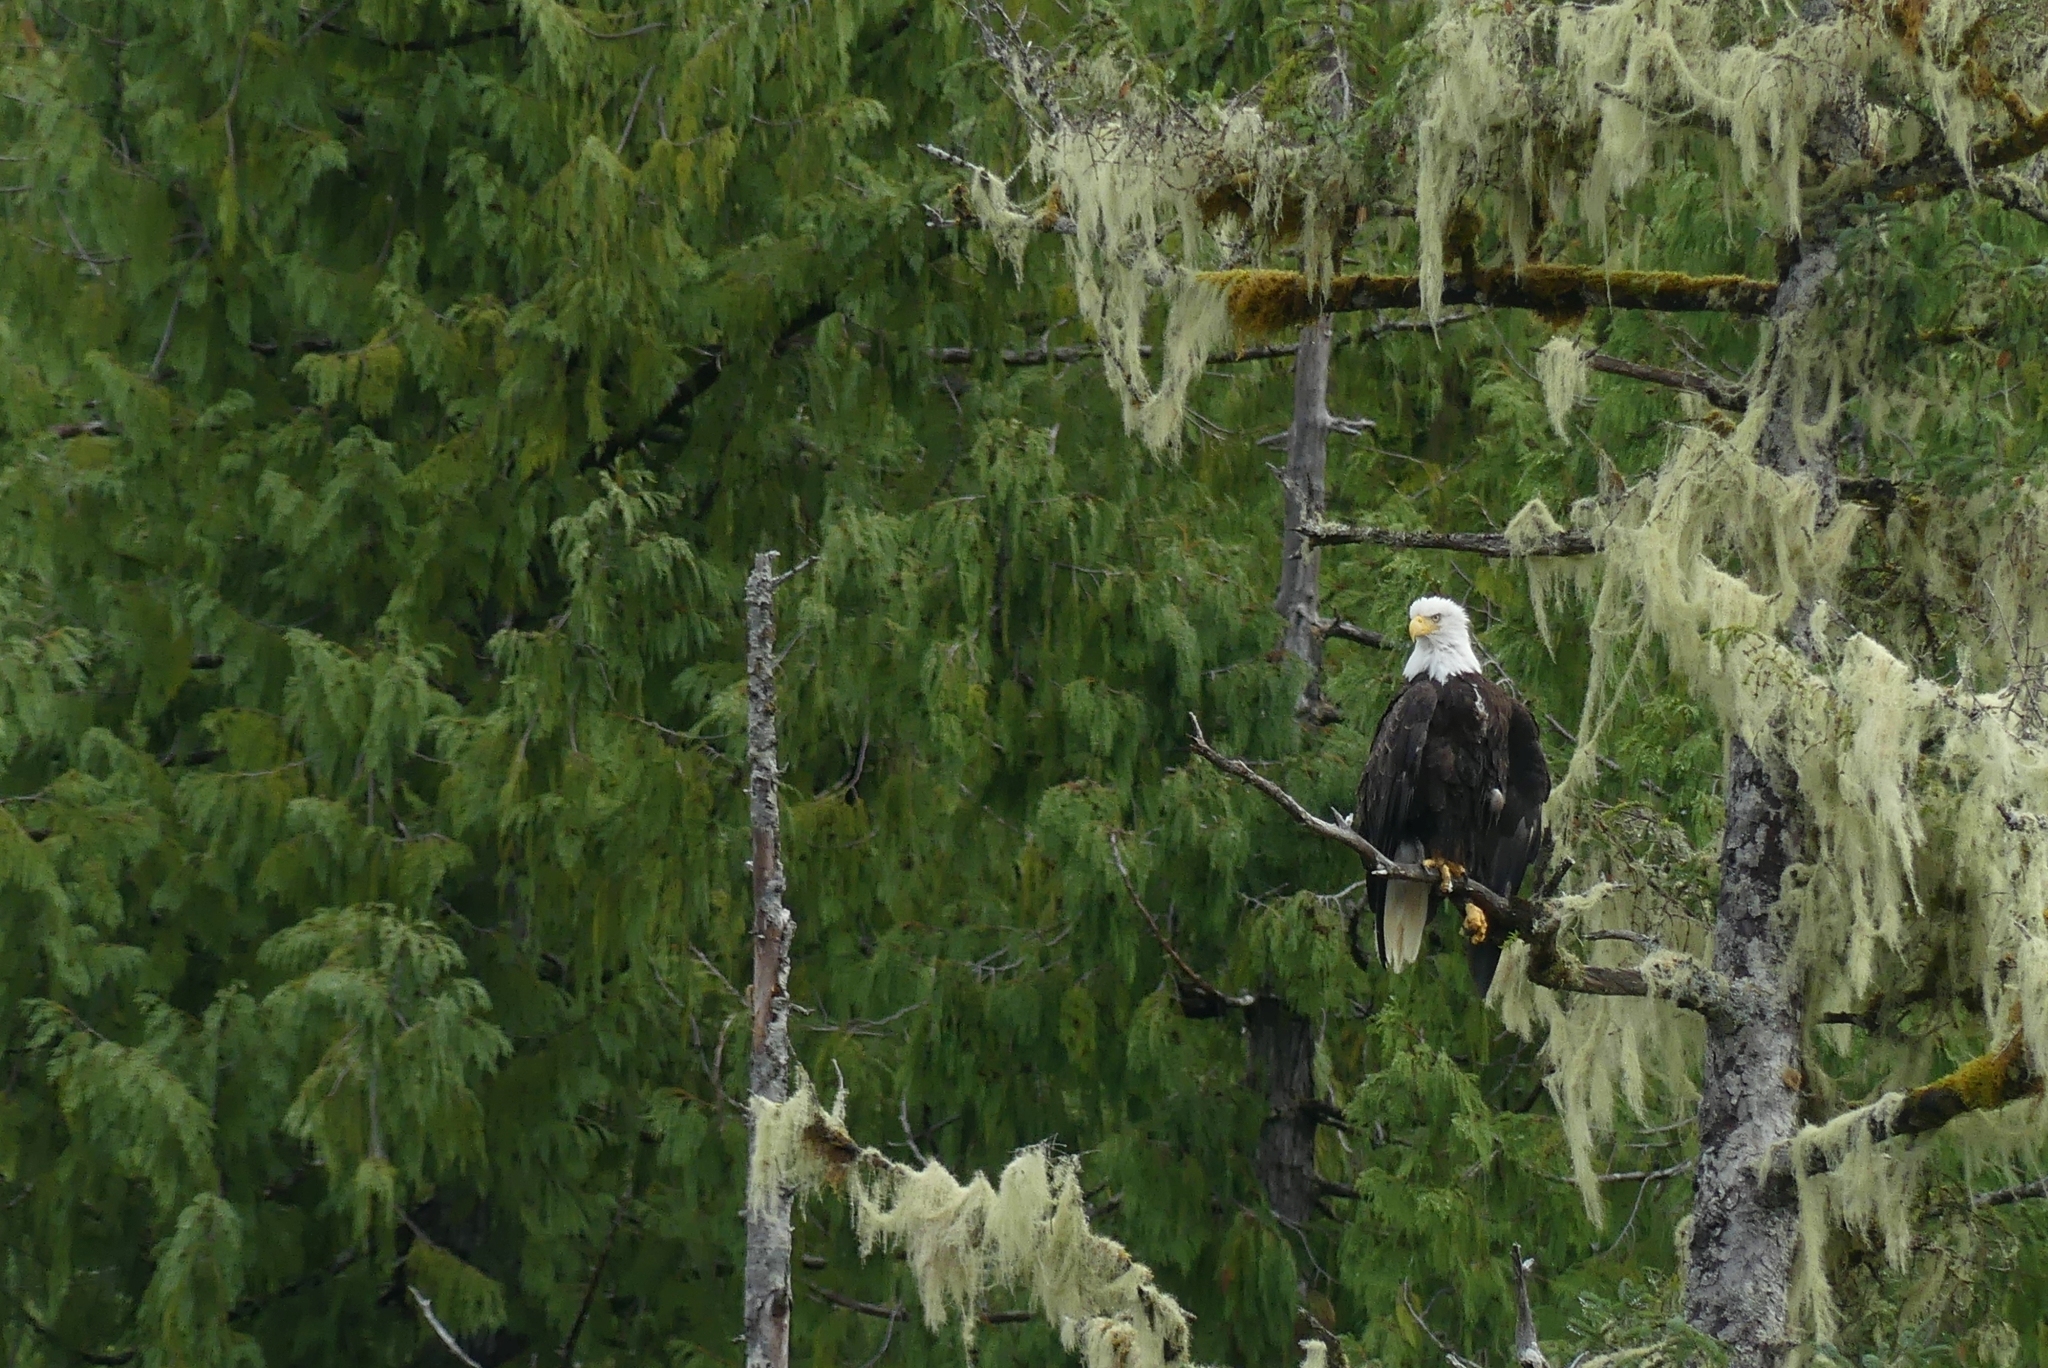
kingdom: Animalia
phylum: Chordata
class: Aves
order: Accipitriformes
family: Accipitridae
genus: Haliaeetus
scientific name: Haliaeetus leucocephalus
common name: Bald eagle
